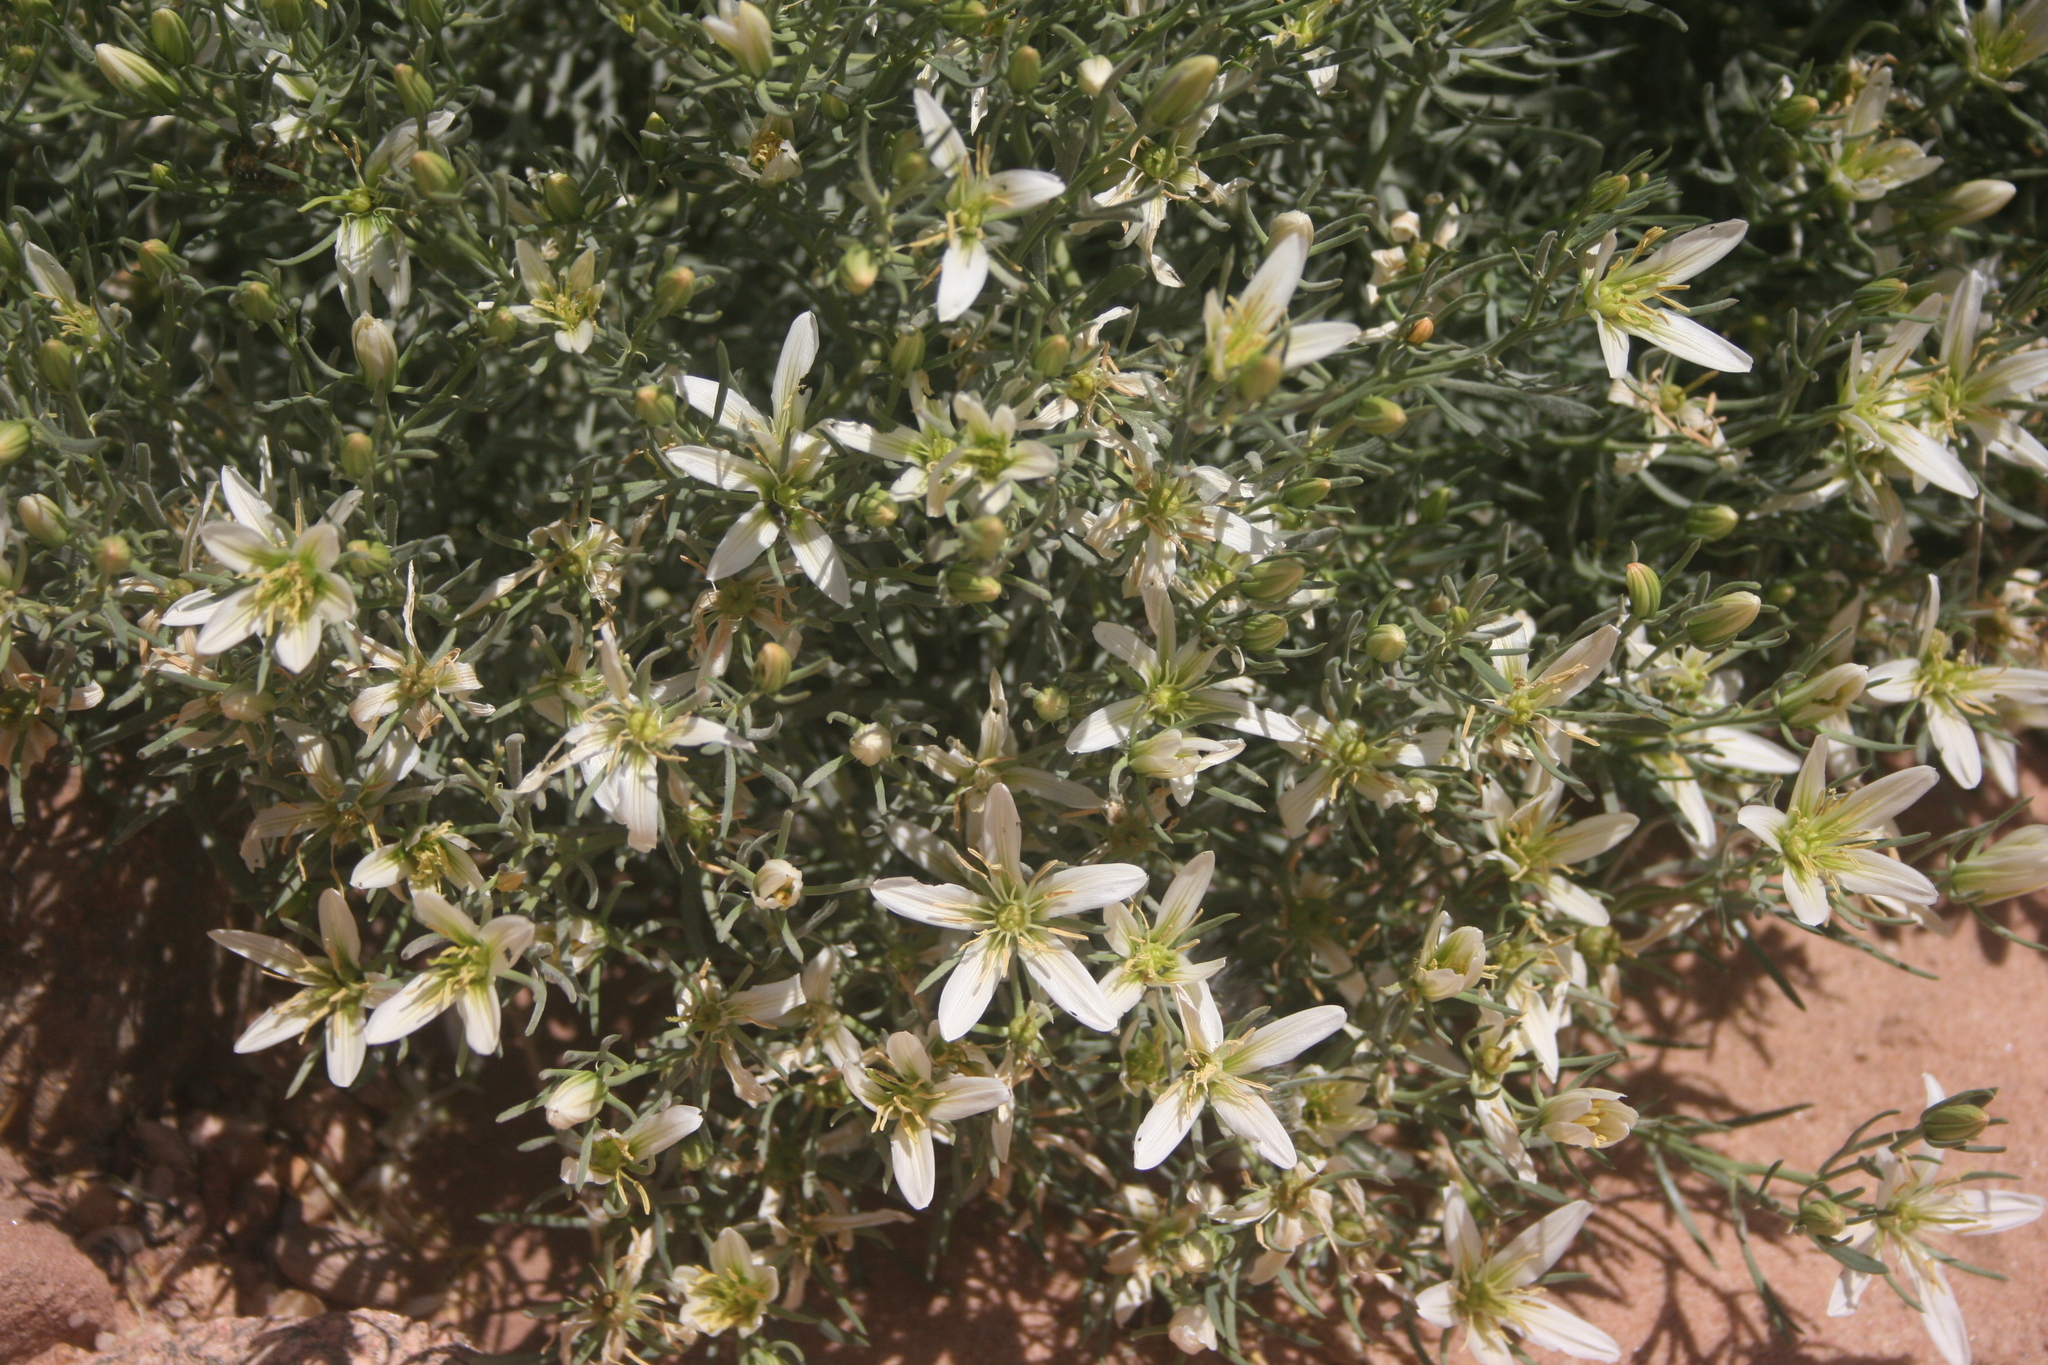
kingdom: Plantae
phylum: Tracheophyta
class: Magnoliopsida
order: Sapindales
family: Tetradiclidaceae
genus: Peganum
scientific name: Peganum harmala
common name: Harmal peganum
